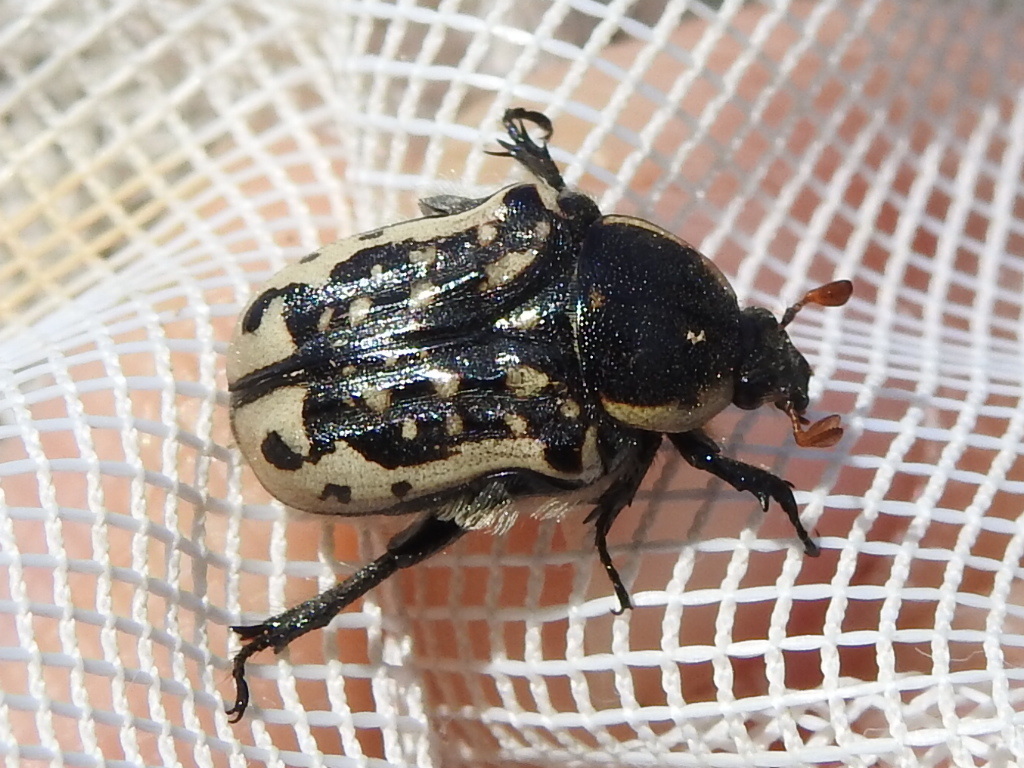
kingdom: Animalia
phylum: Arthropoda
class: Insecta
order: Coleoptera
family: Scarabaeidae
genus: Euphoria
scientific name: Euphoria kernii
